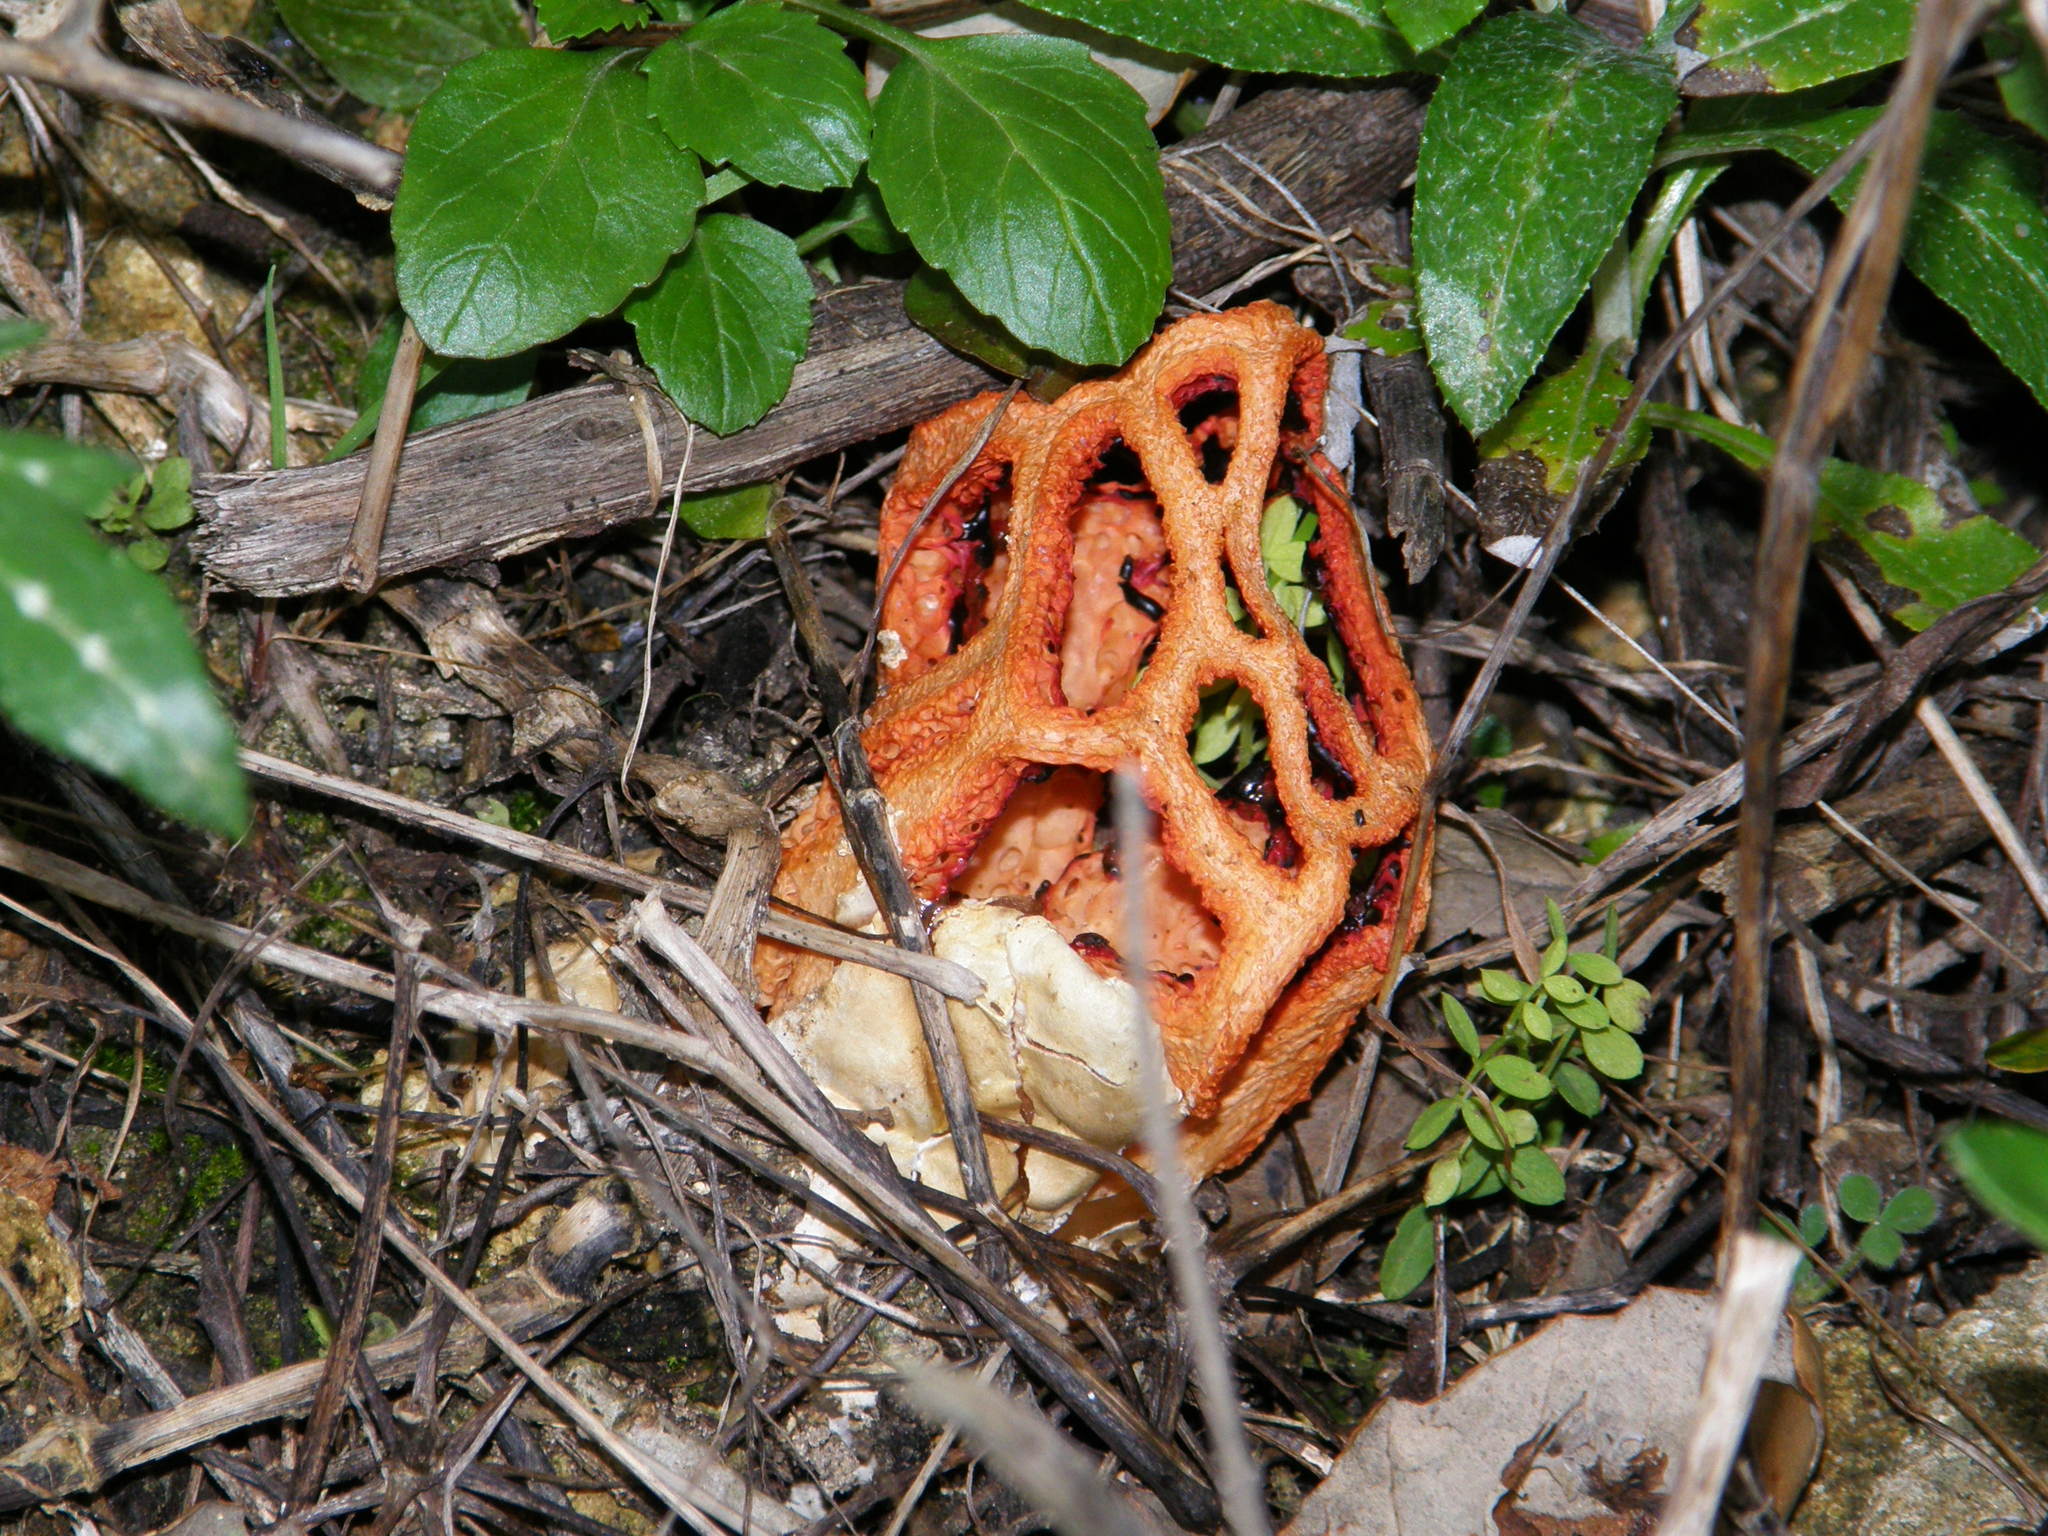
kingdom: Fungi
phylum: Basidiomycota
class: Agaricomycetes
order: Phallales
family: Phallaceae
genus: Clathrus
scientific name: Clathrus ruber
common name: Red cage
